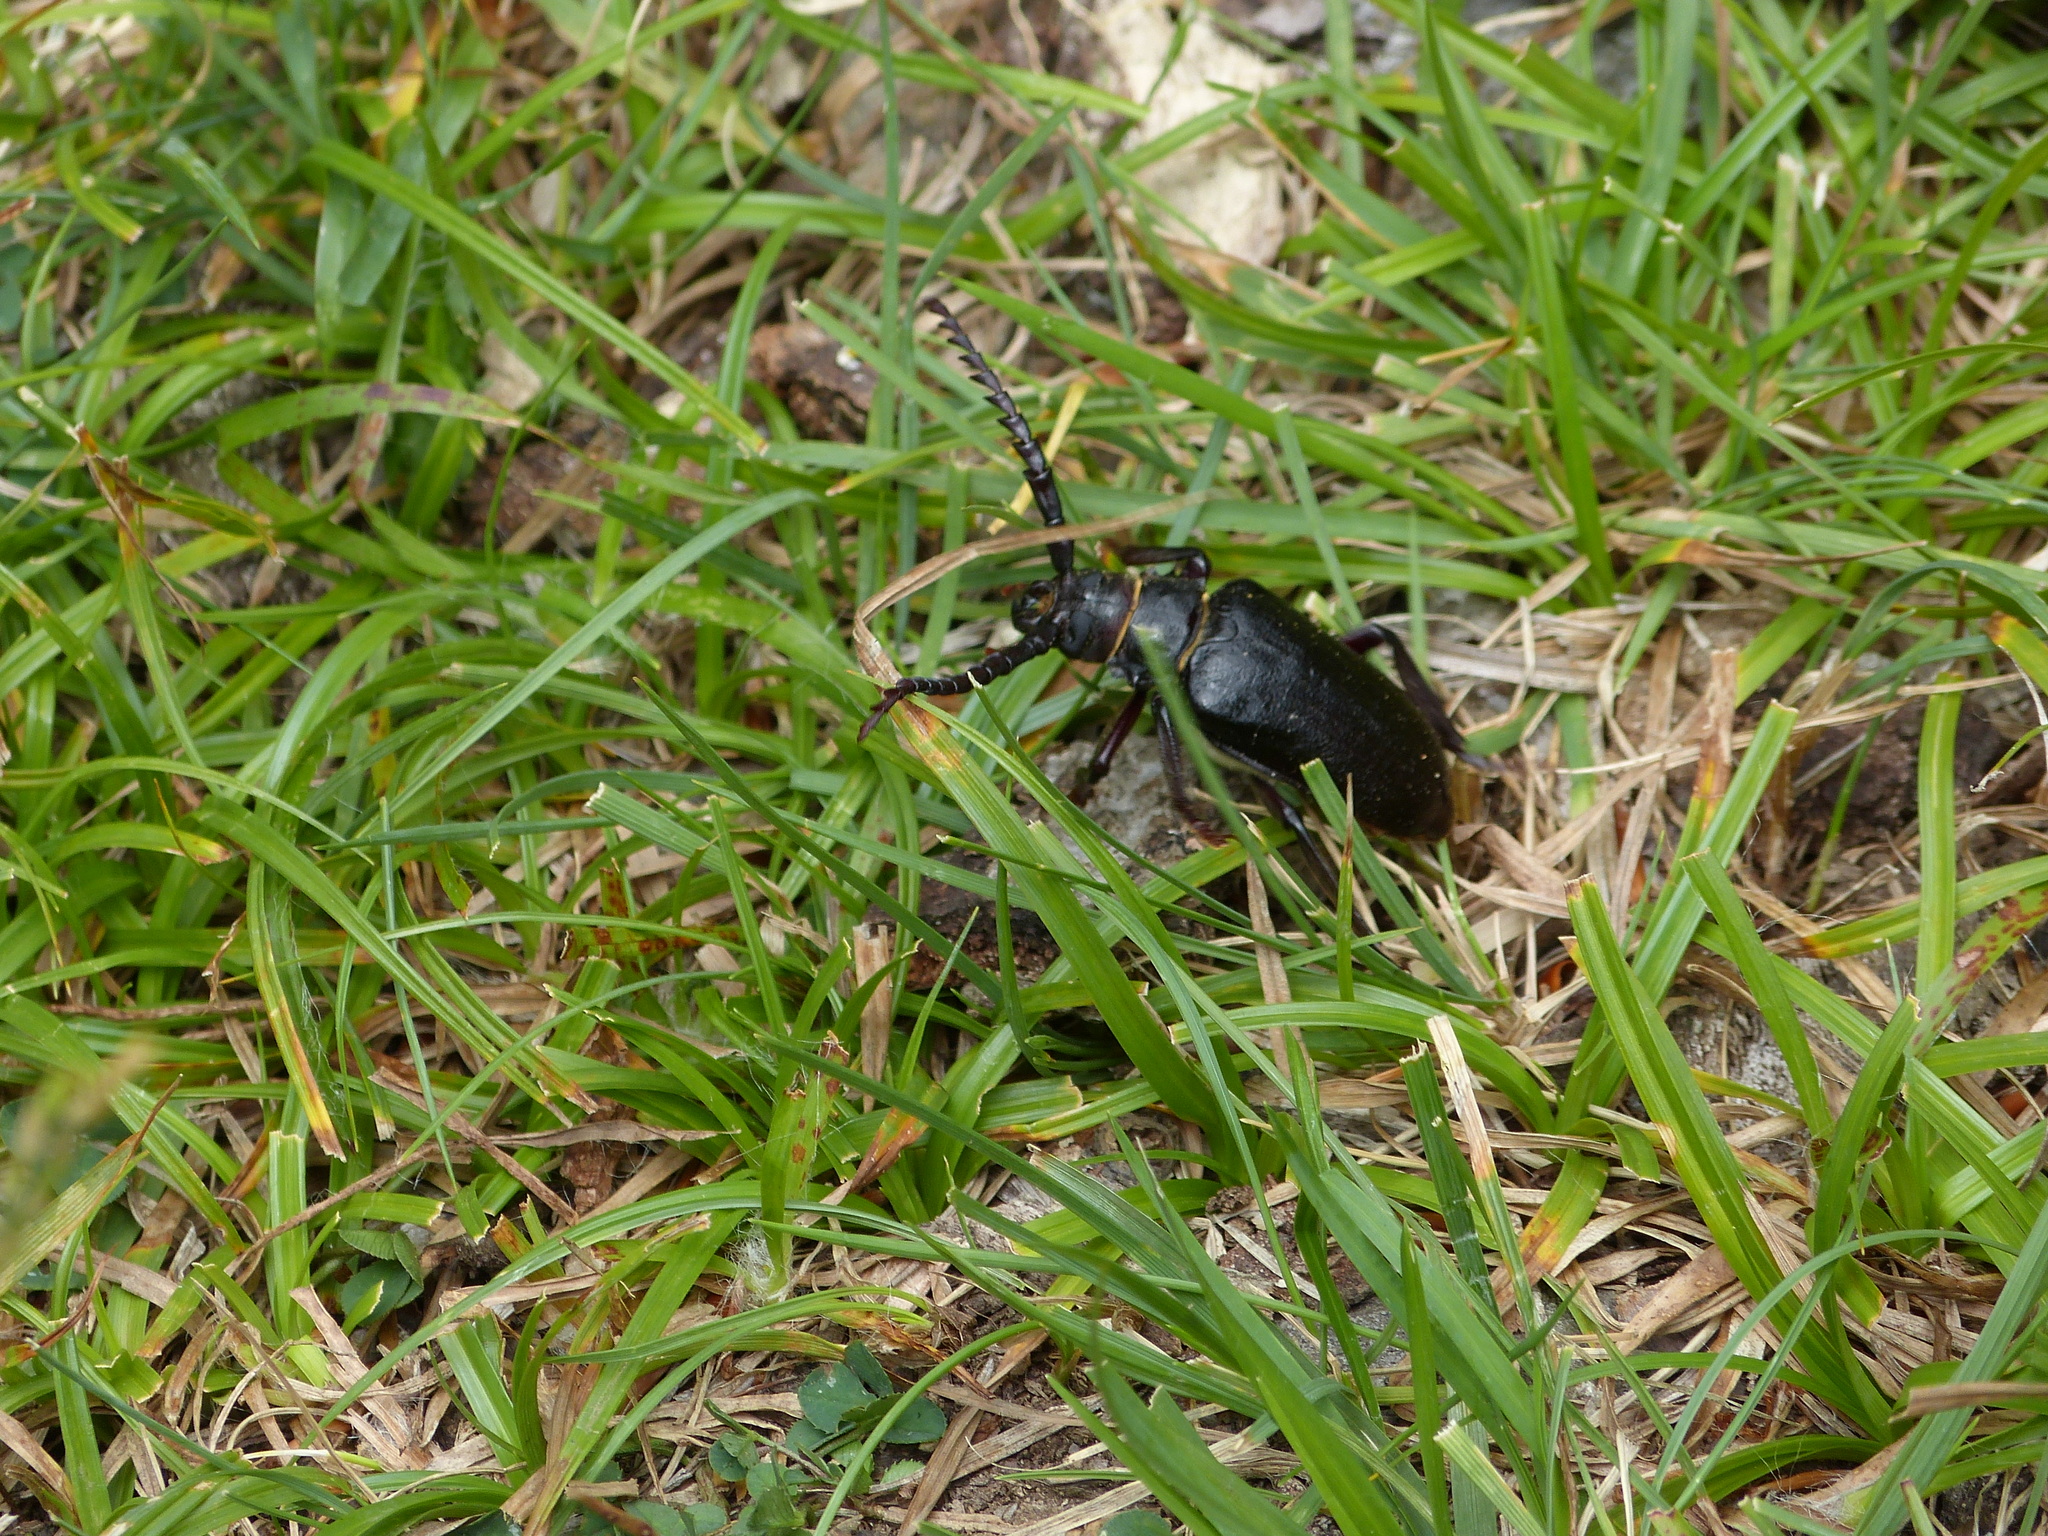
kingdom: Animalia
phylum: Arthropoda
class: Insecta
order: Coleoptera
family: Cerambycidae
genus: Prionus
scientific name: Prionus coriarius
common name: Tanner beetle
